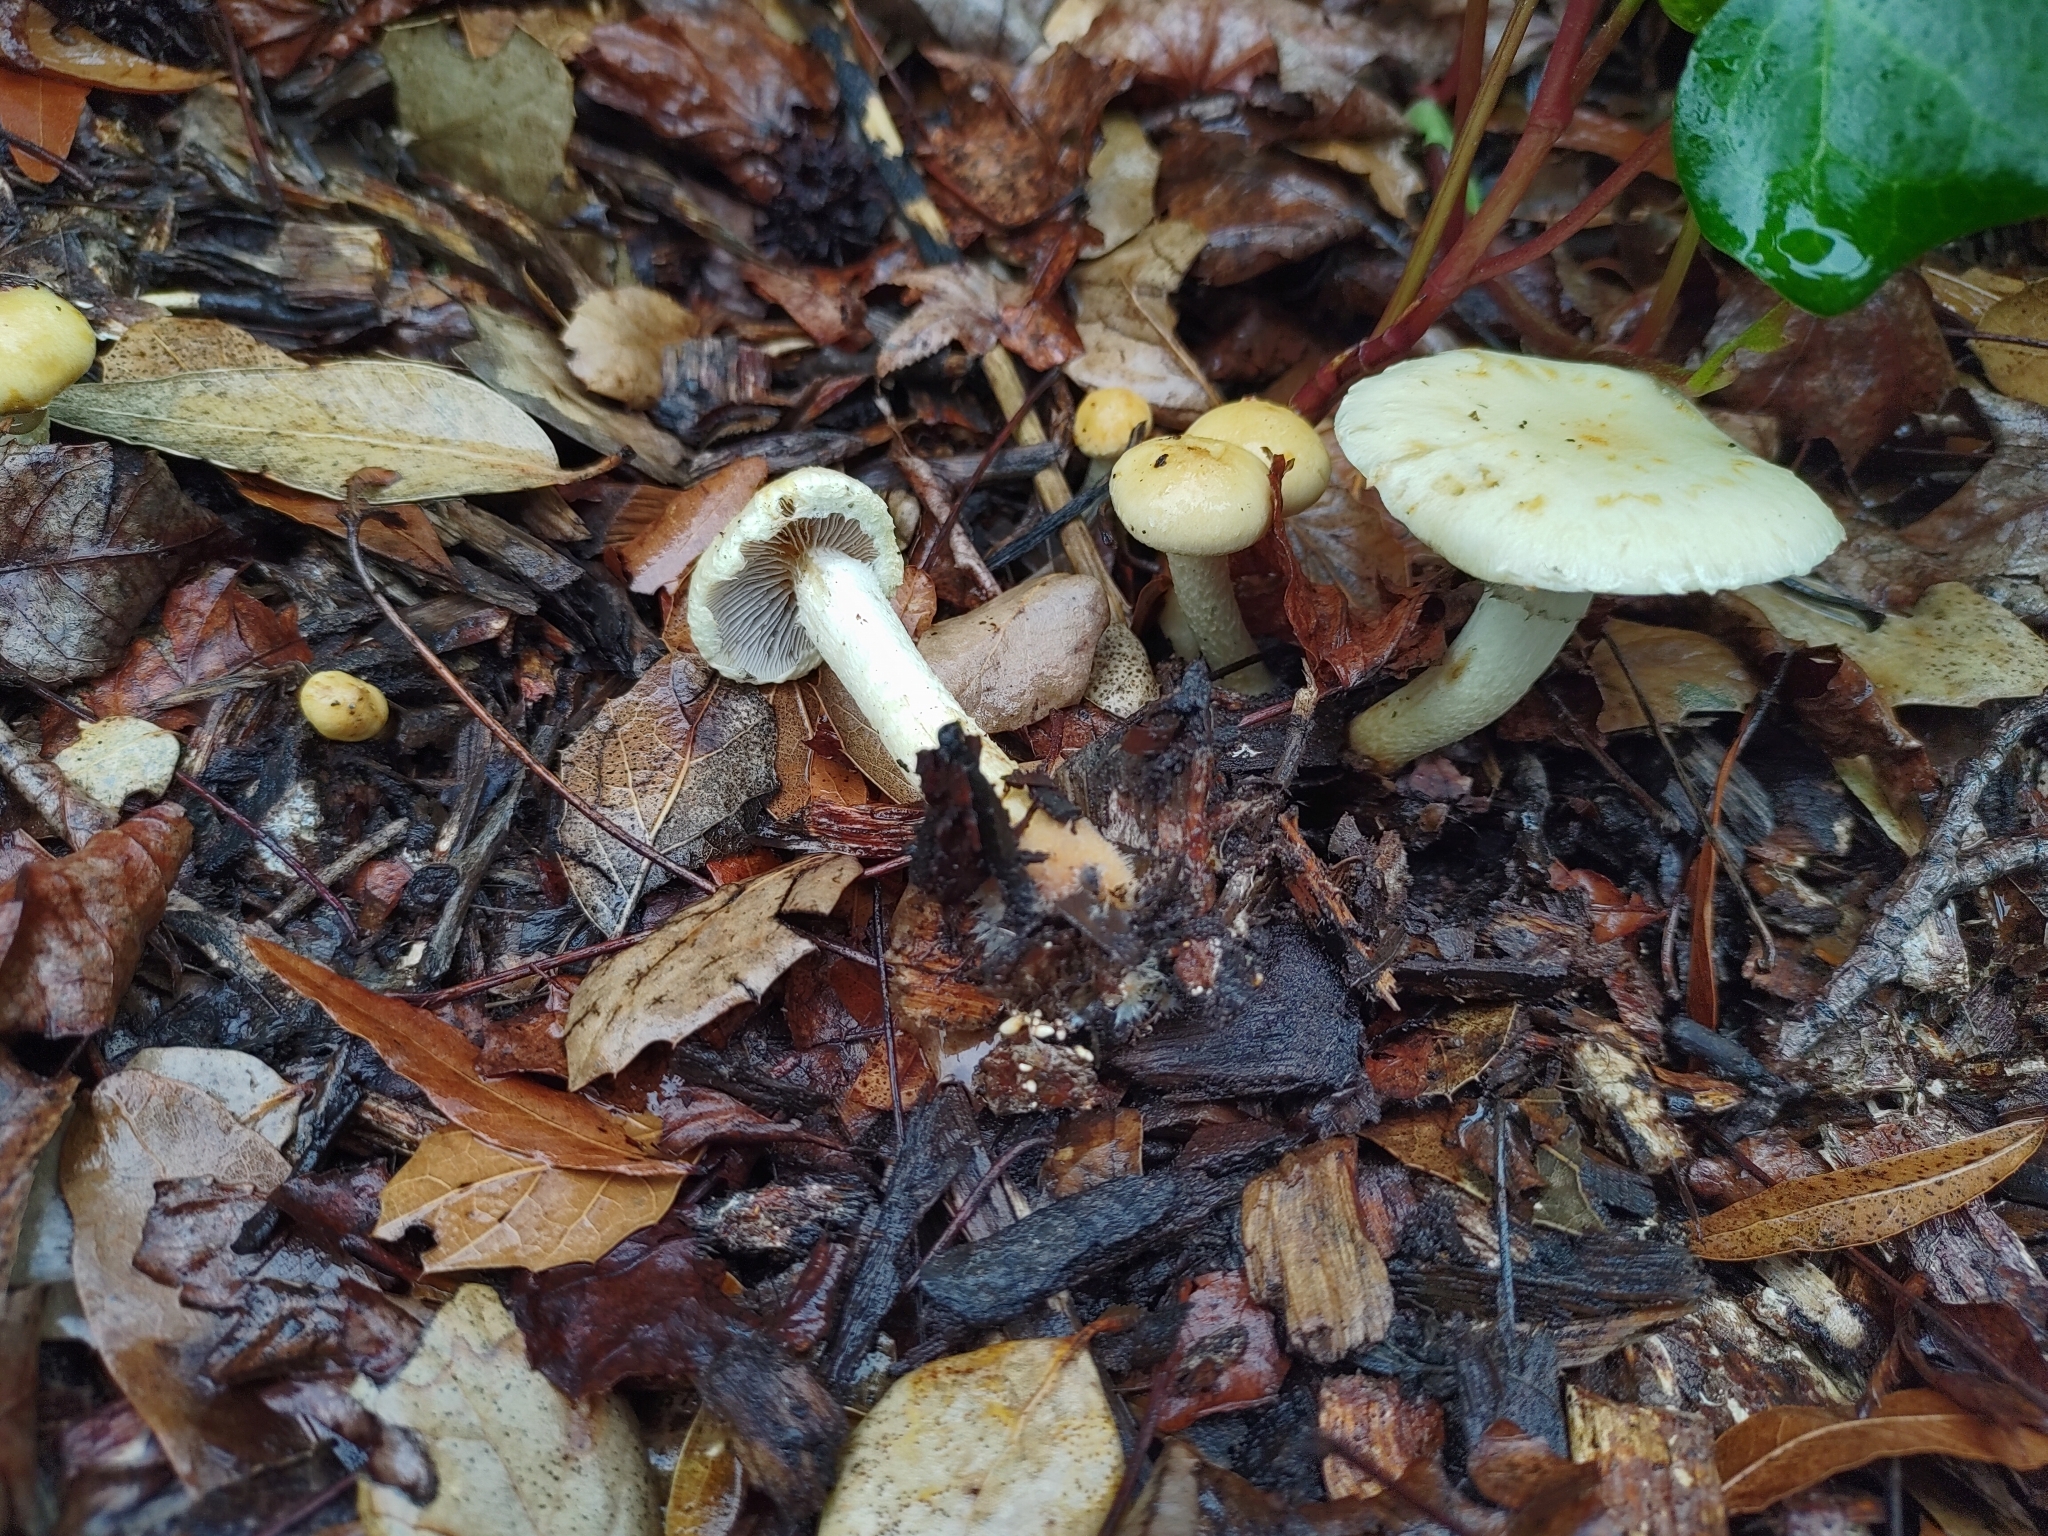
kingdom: Fungi
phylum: Basidiomycota
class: Agaricomycetes
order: Agaricales
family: Strophariaceae
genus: Leratiomyces
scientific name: Leratiomyces percevalii
